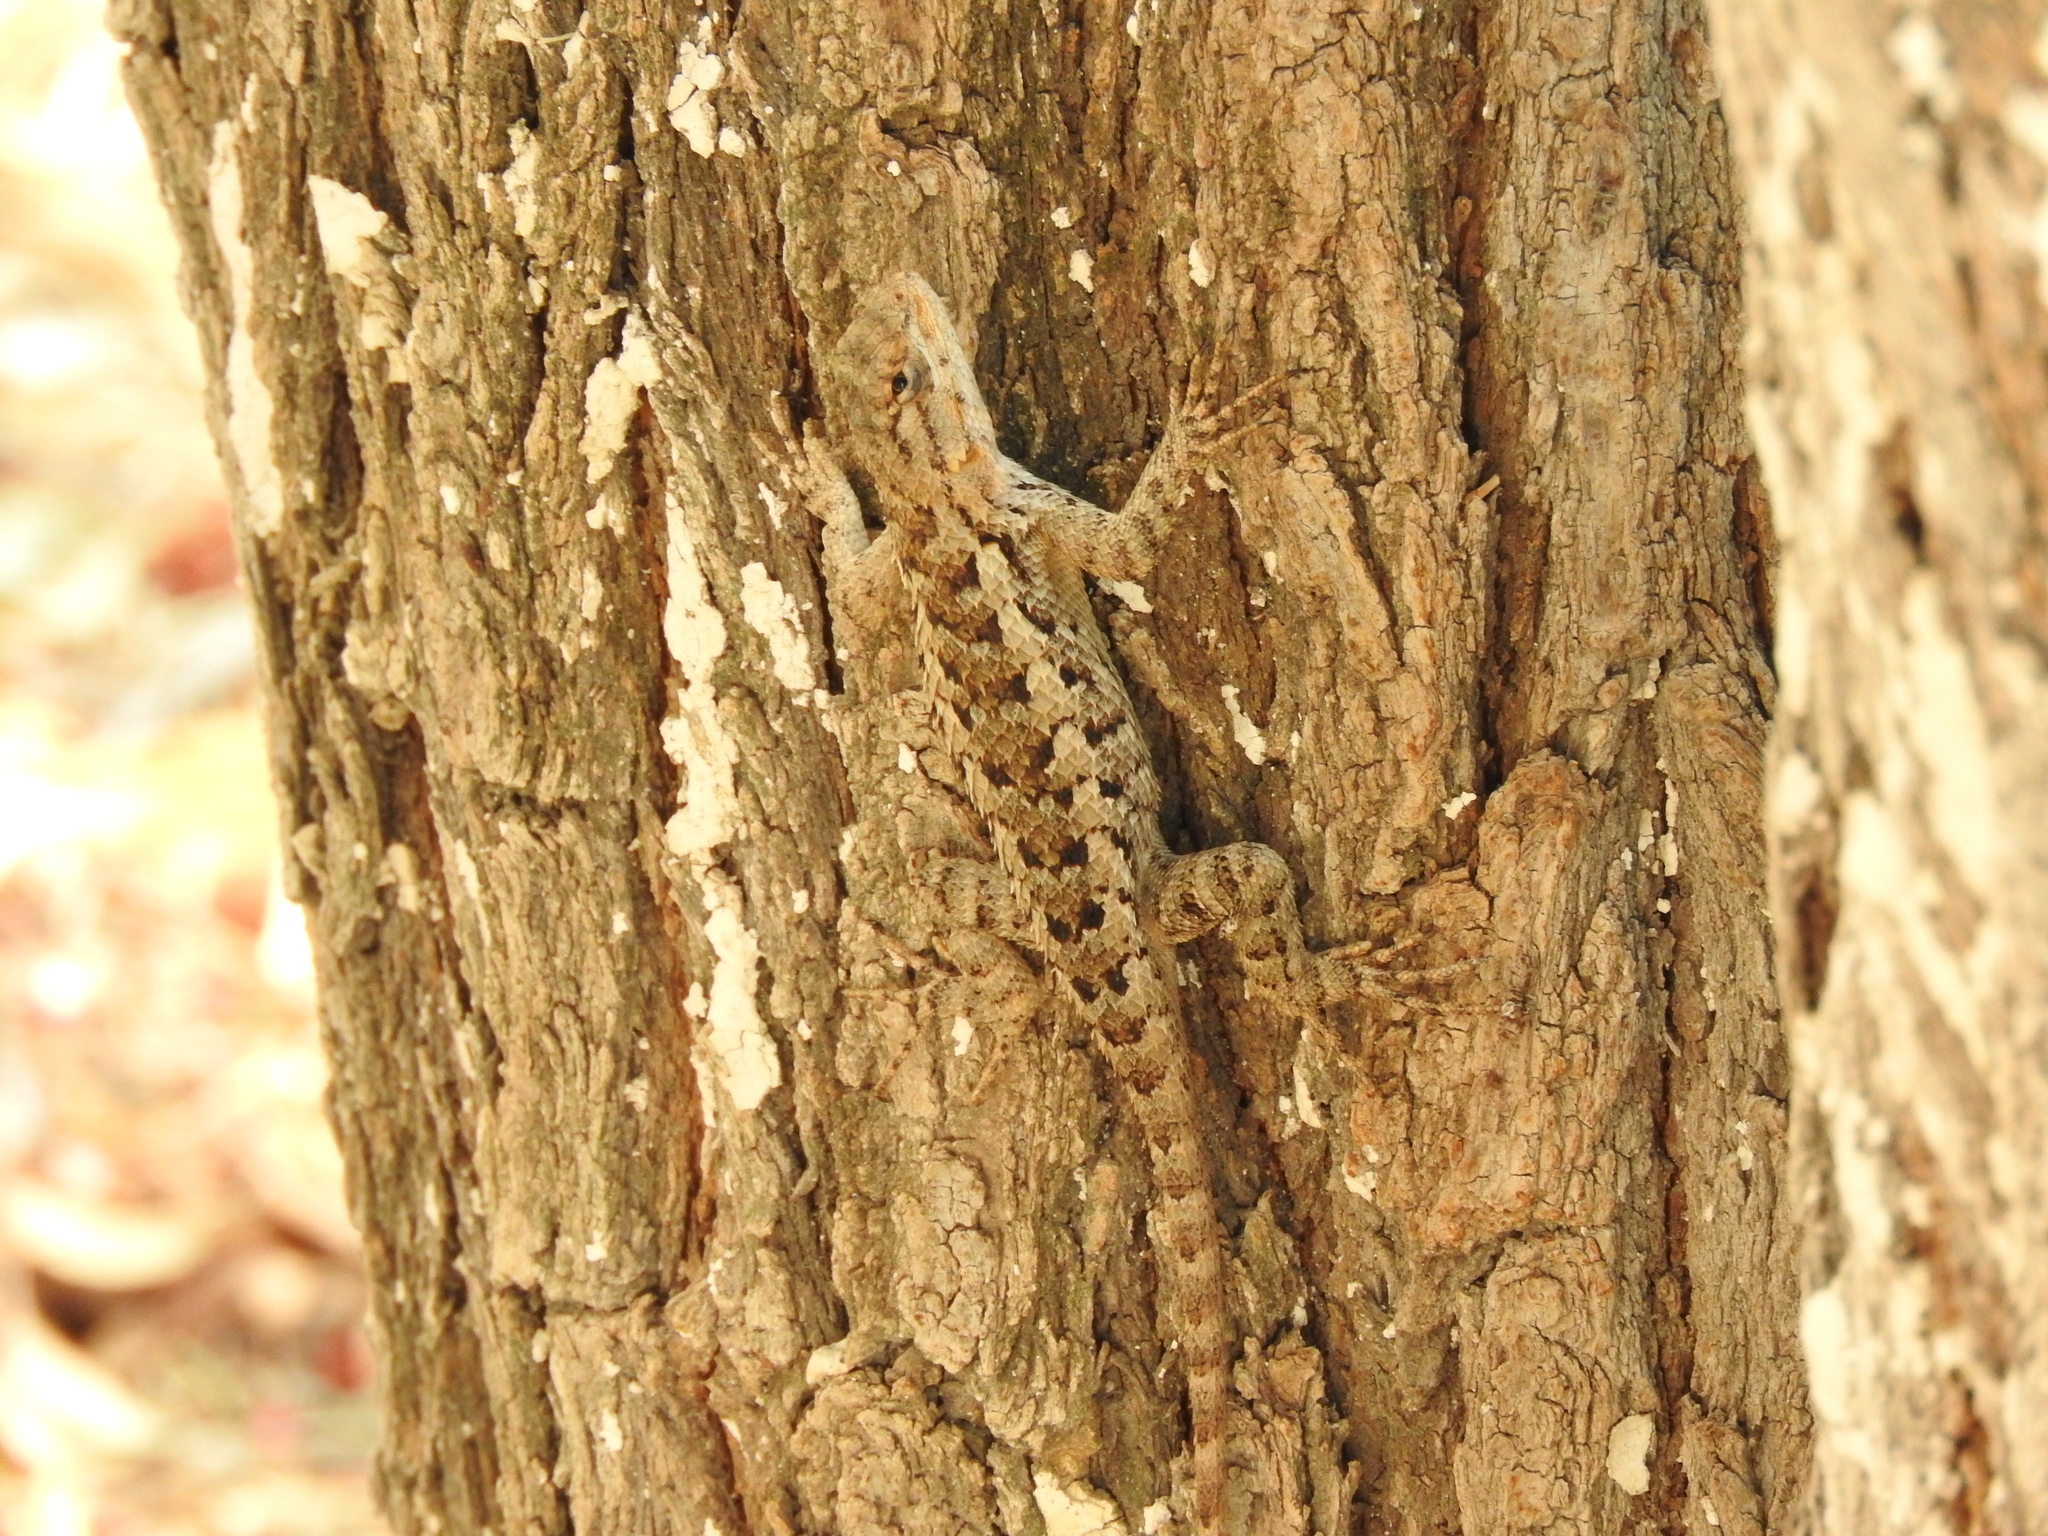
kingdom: Animalia
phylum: Chordata
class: Squamata
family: Phrynosomatidae
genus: Sceloporus
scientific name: Sceloporus spinosus
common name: Blue-spotted spiny lizard [caeruleopunctatus]
